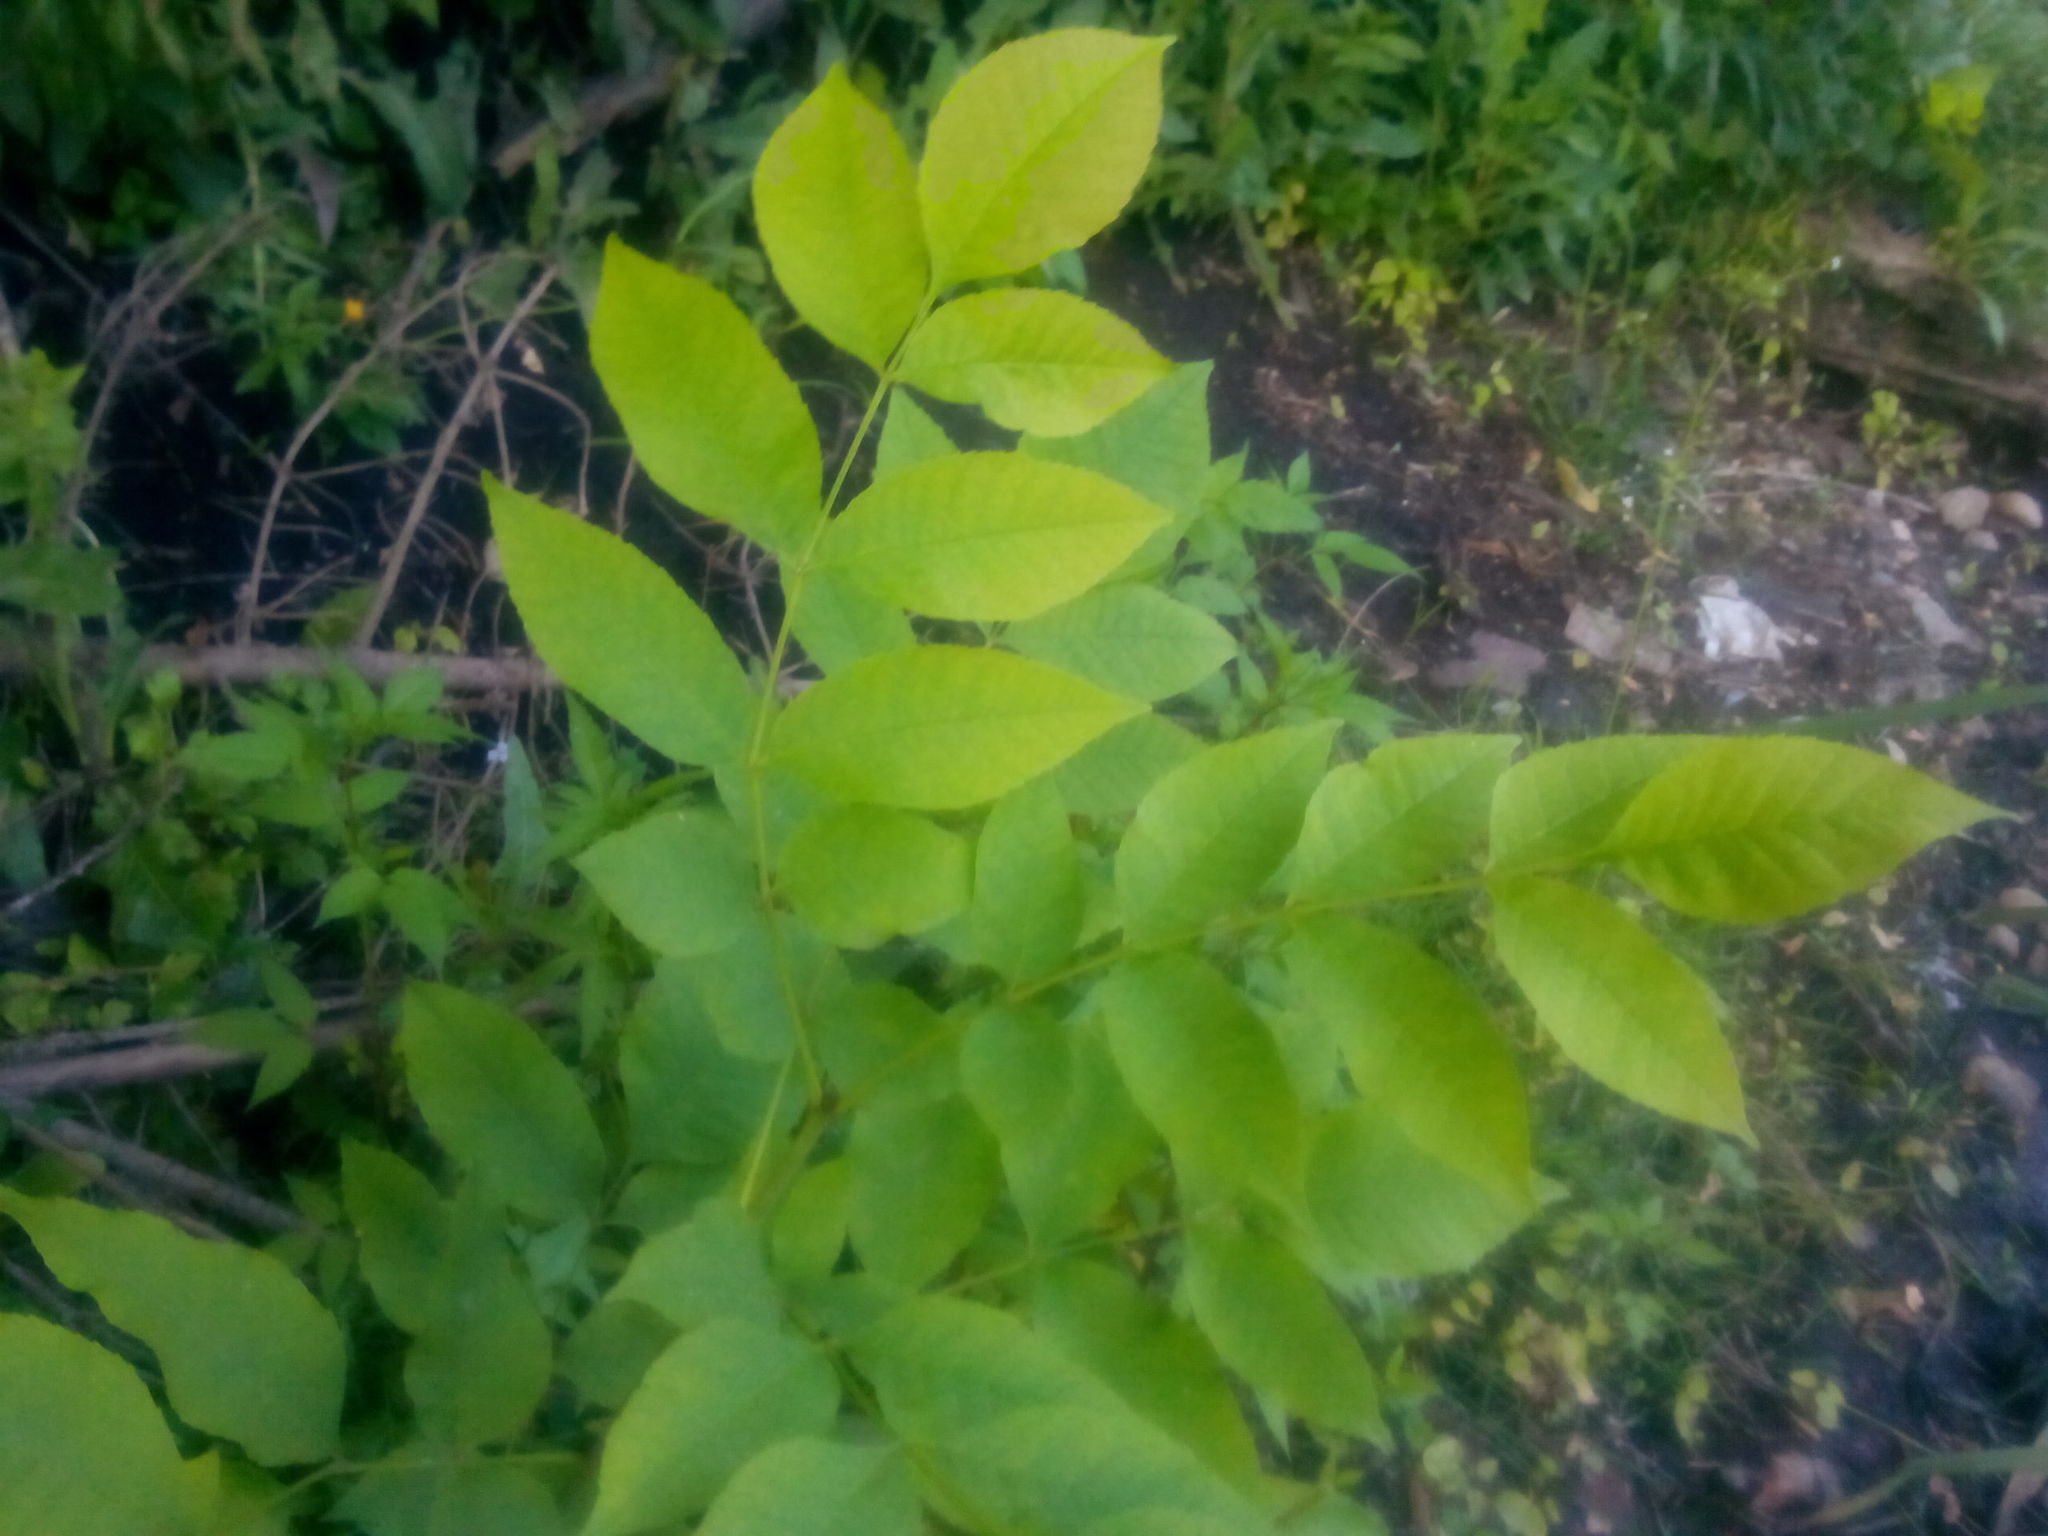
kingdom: Plantae
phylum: Tracheophyta
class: Magnoliopsida
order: Lamiales
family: Oleaceae
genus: Fraxinus
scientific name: Fraxinus pennsylvanica
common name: Green ash
